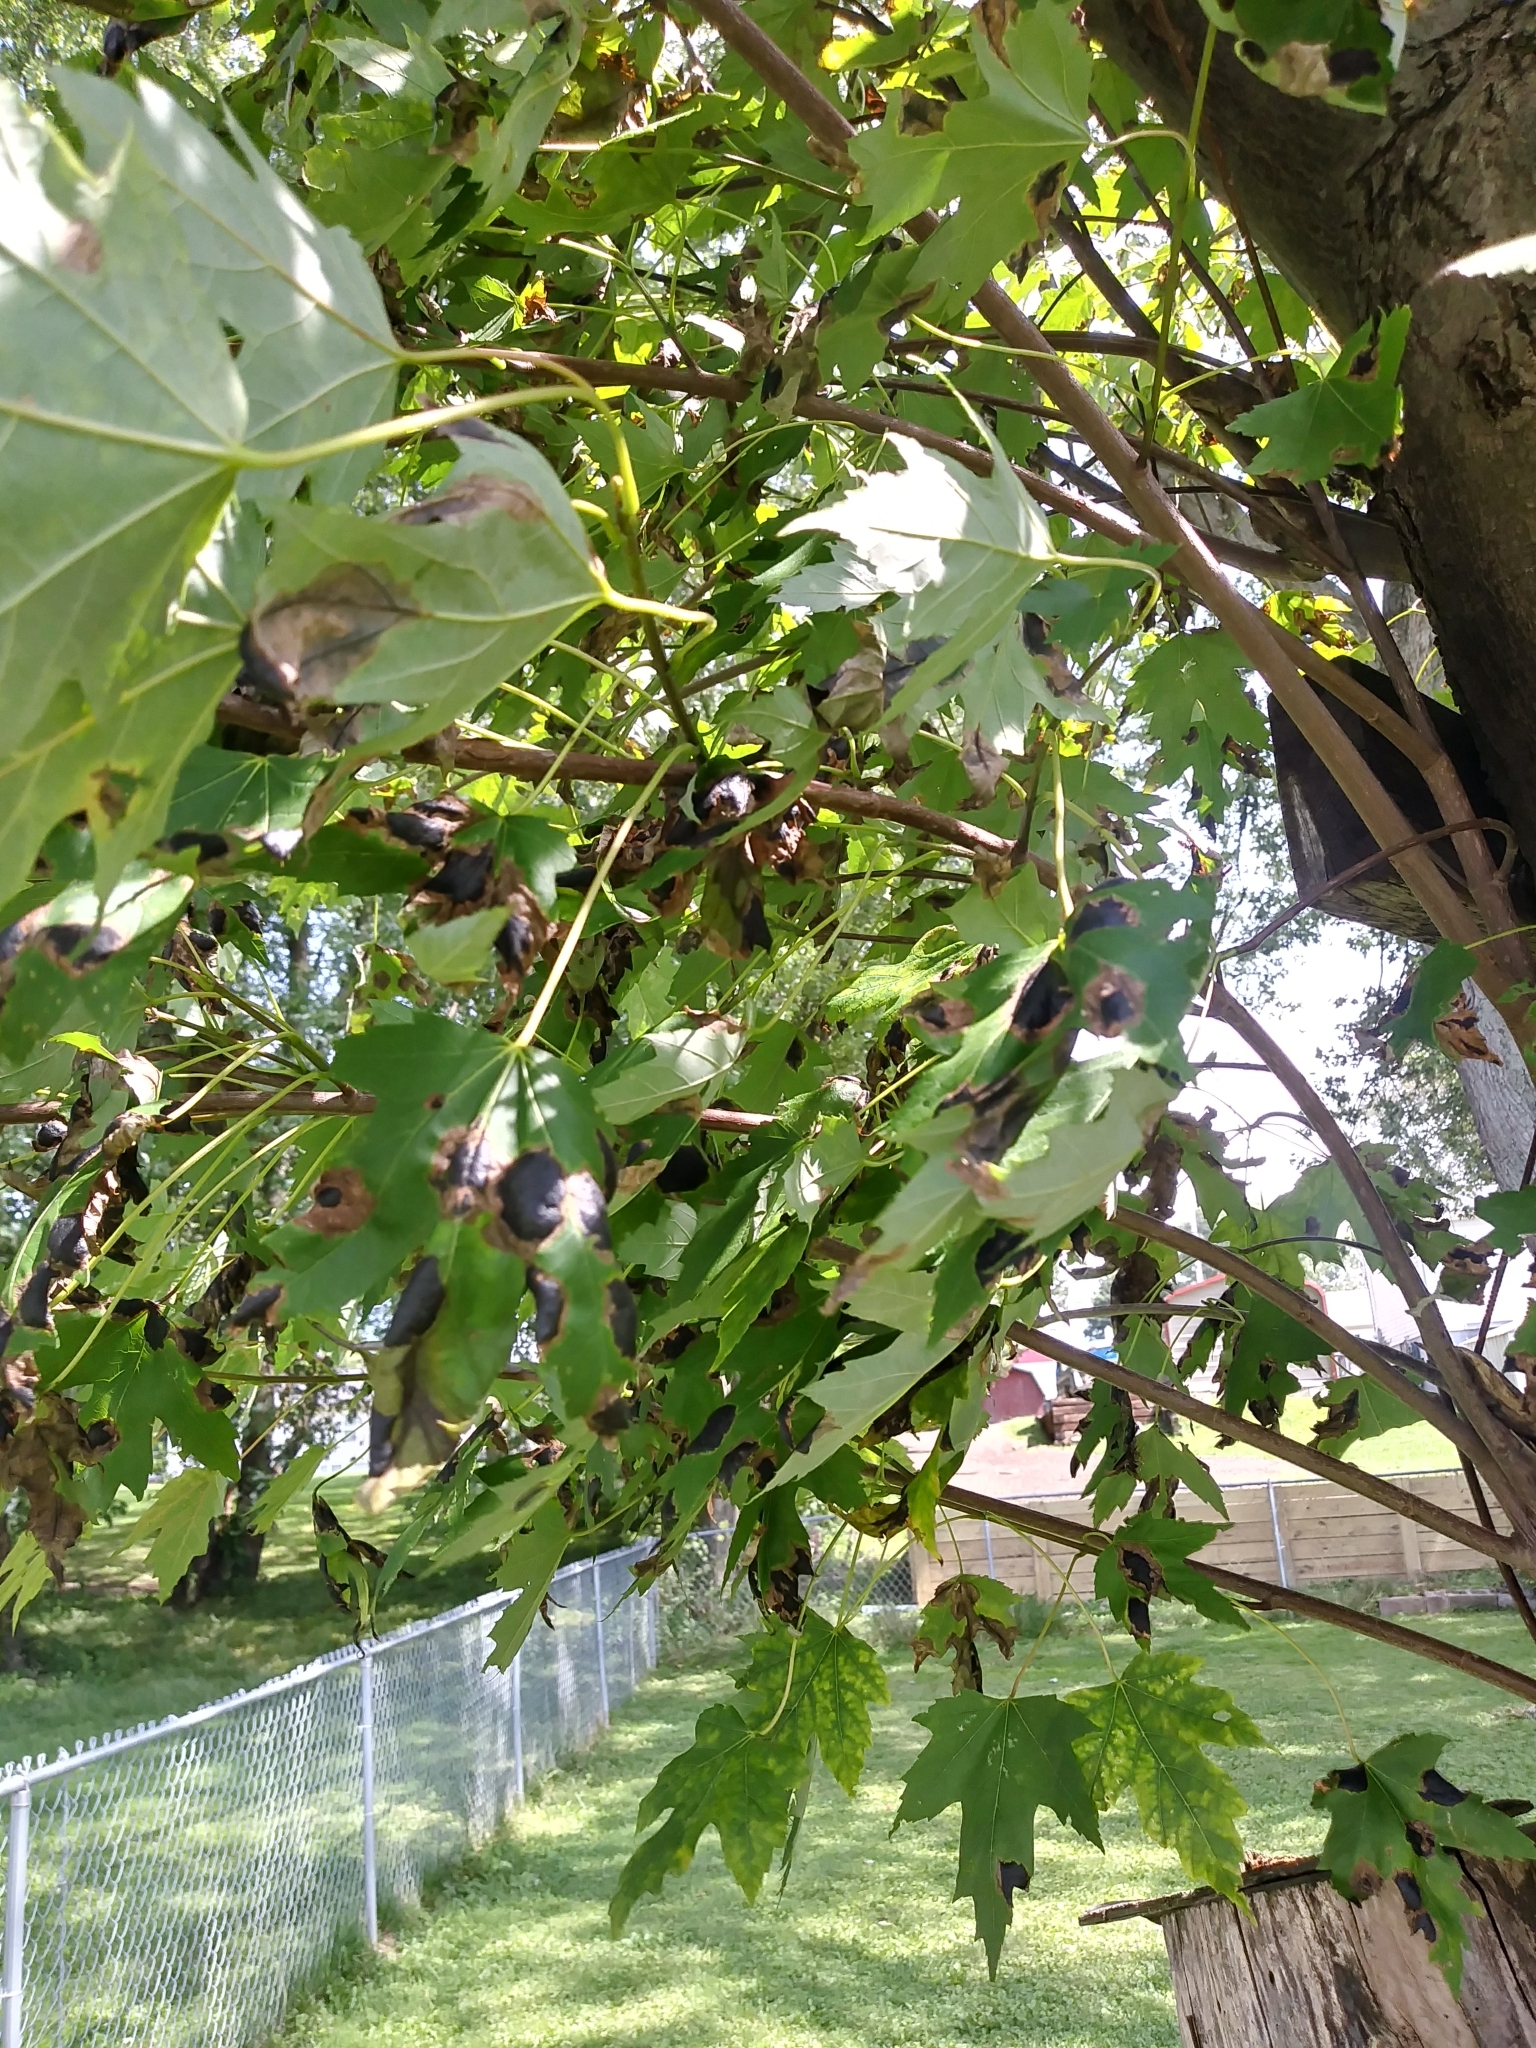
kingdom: Fungi
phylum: Ascomycota
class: Leotiomycetes
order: Rhytismatales
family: Rhytismataceae
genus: Rhytisma
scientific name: Rhytisma americanum
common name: American tar spot
